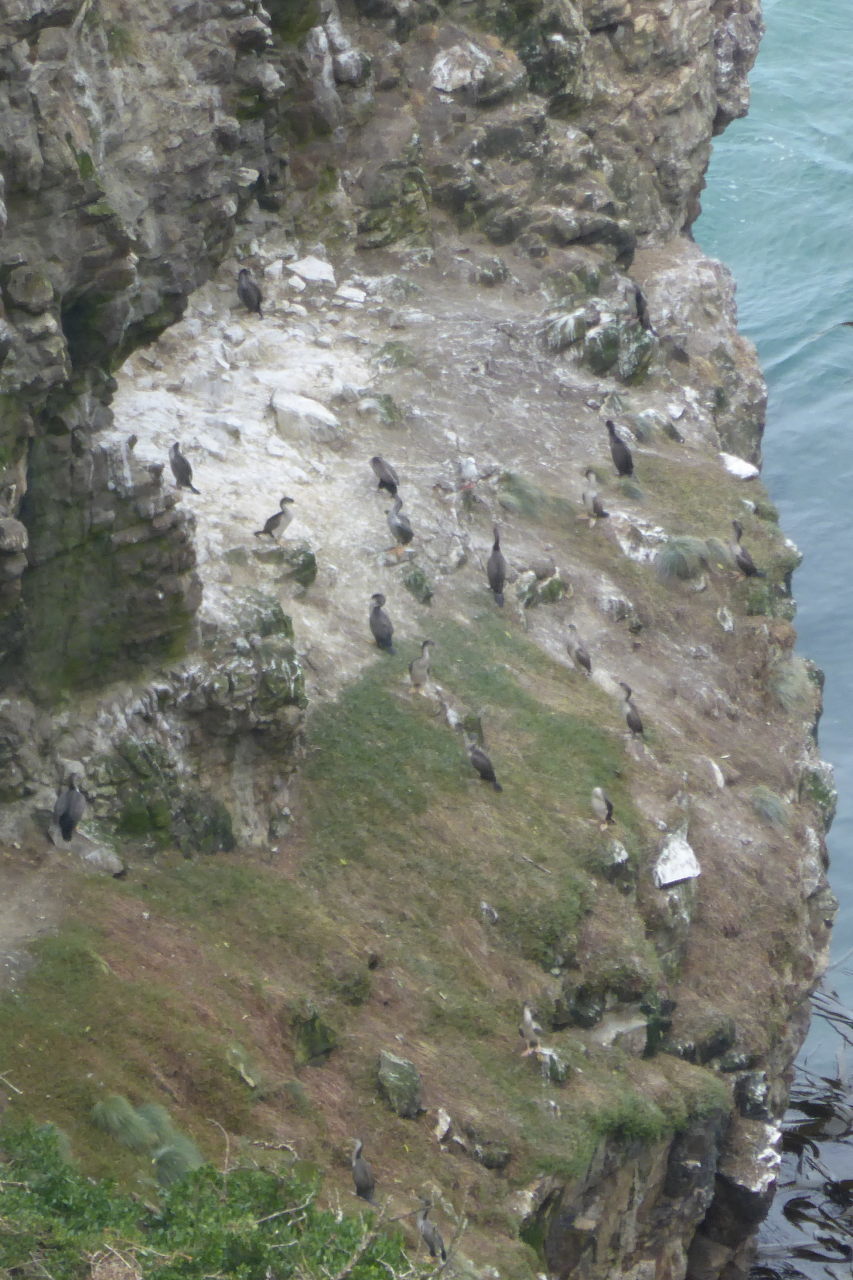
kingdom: Animalia
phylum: Chordata
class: Aves
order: Suliformes
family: Phalacrocoracidae
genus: Phalacrocorax
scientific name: Phalacrocorax punctatus
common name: Spotted shag
